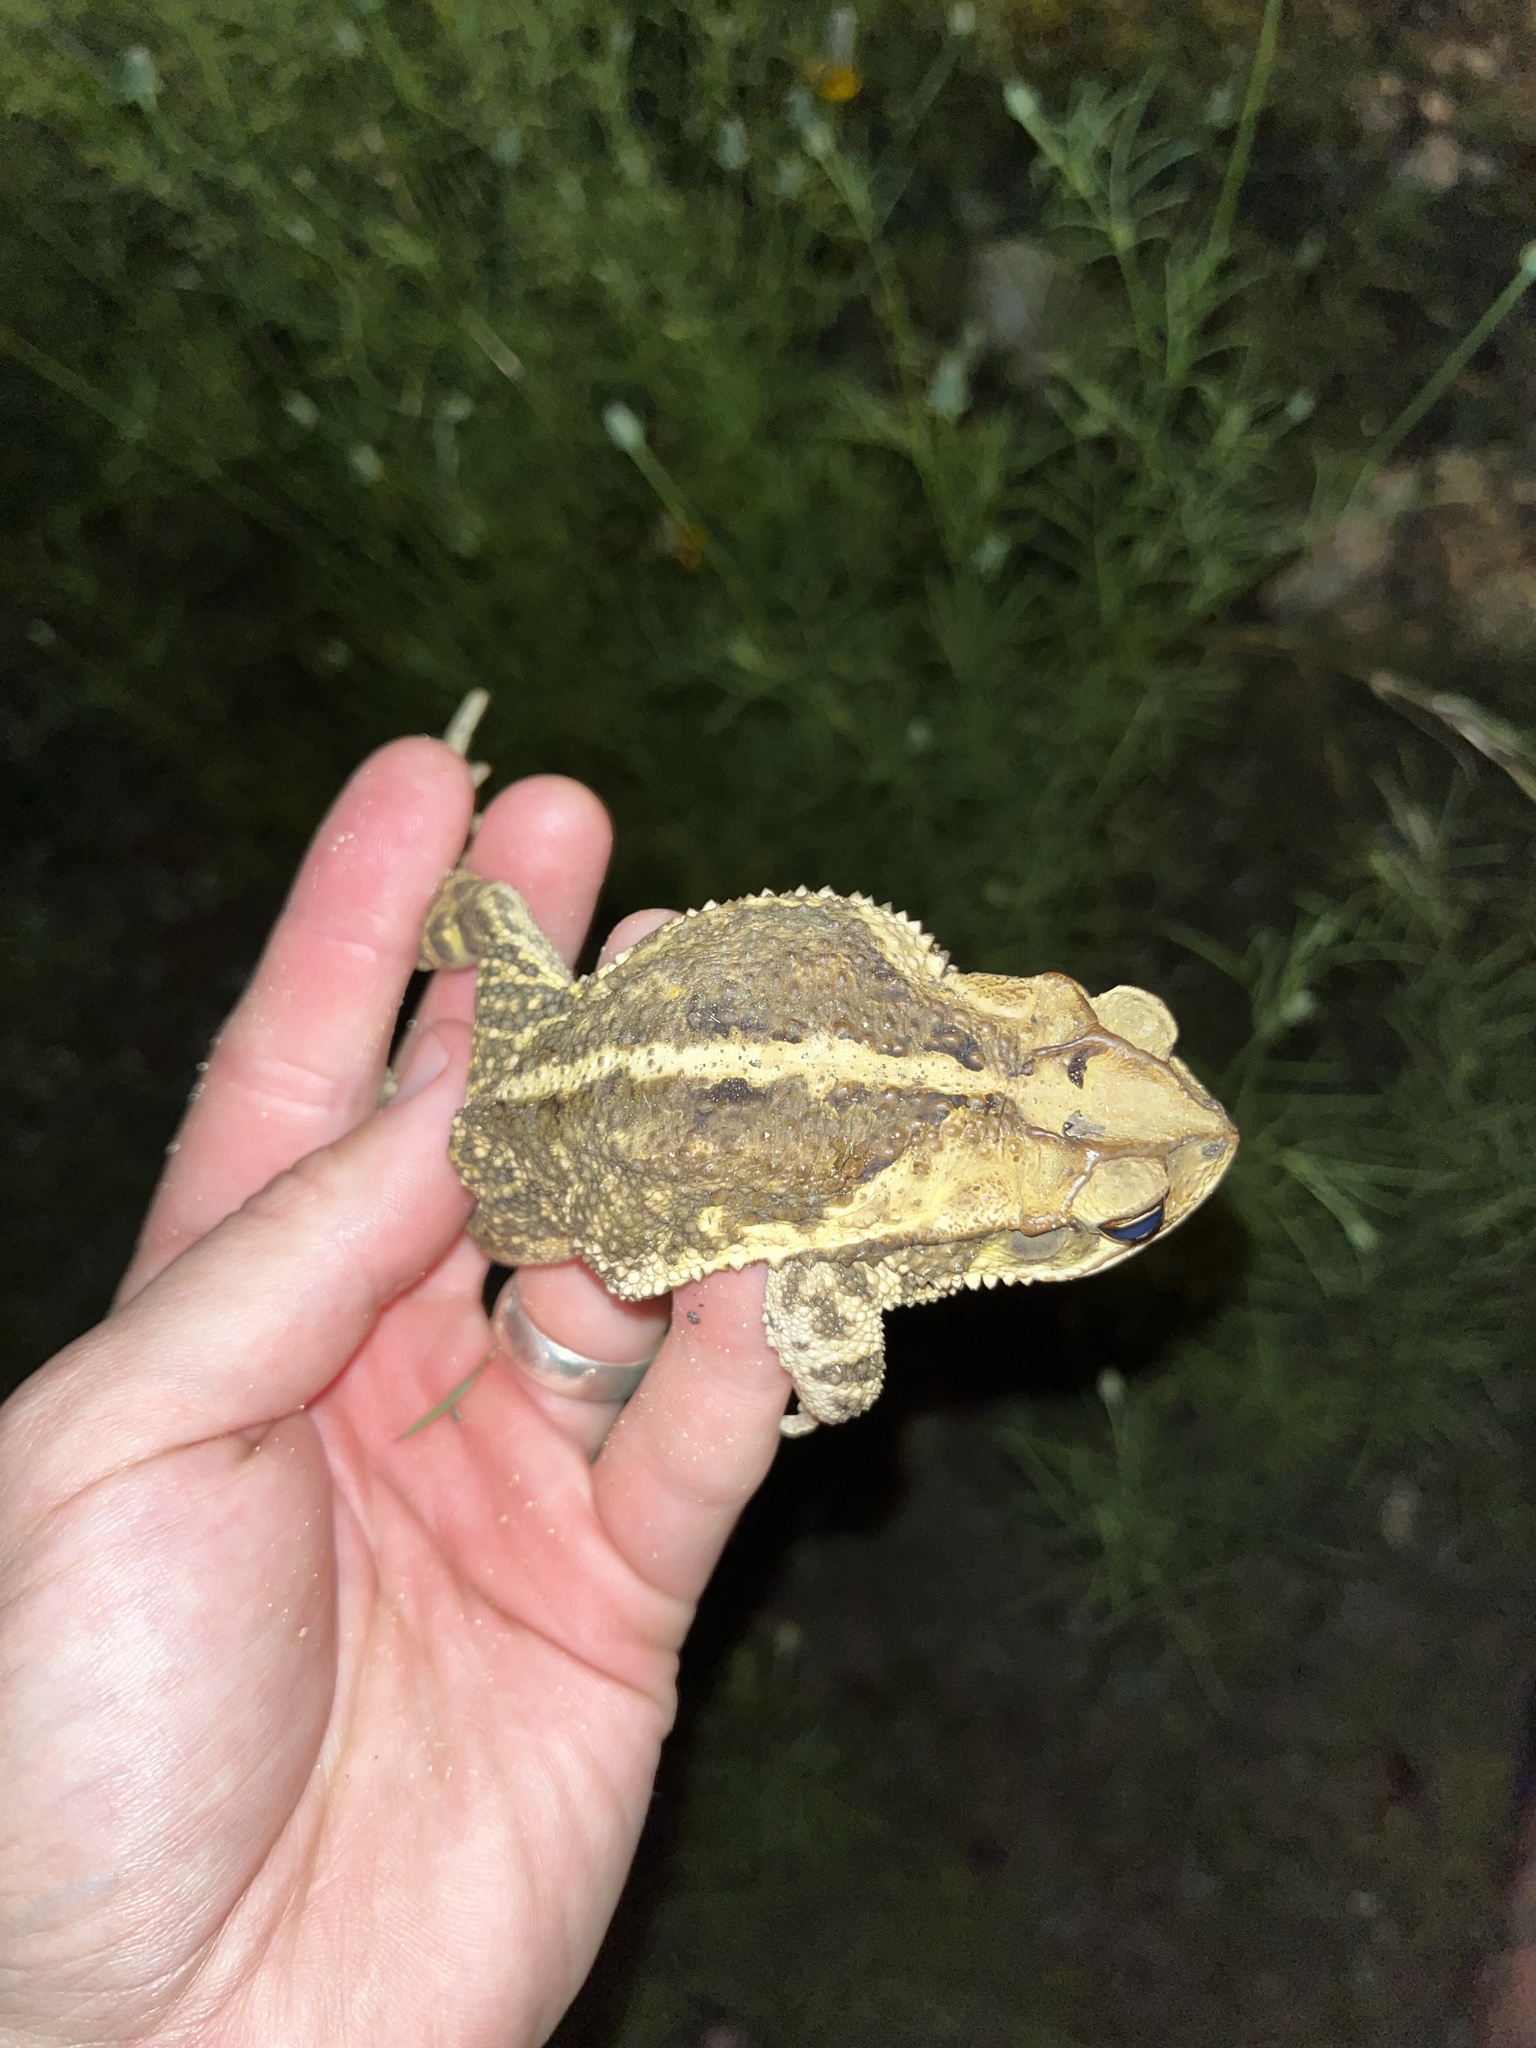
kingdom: Animalia
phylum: Chordata
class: Amphibia
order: Anura
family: Bufonidae
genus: Incilius
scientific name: Incilius nebulifer
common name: Gulf coast toad
